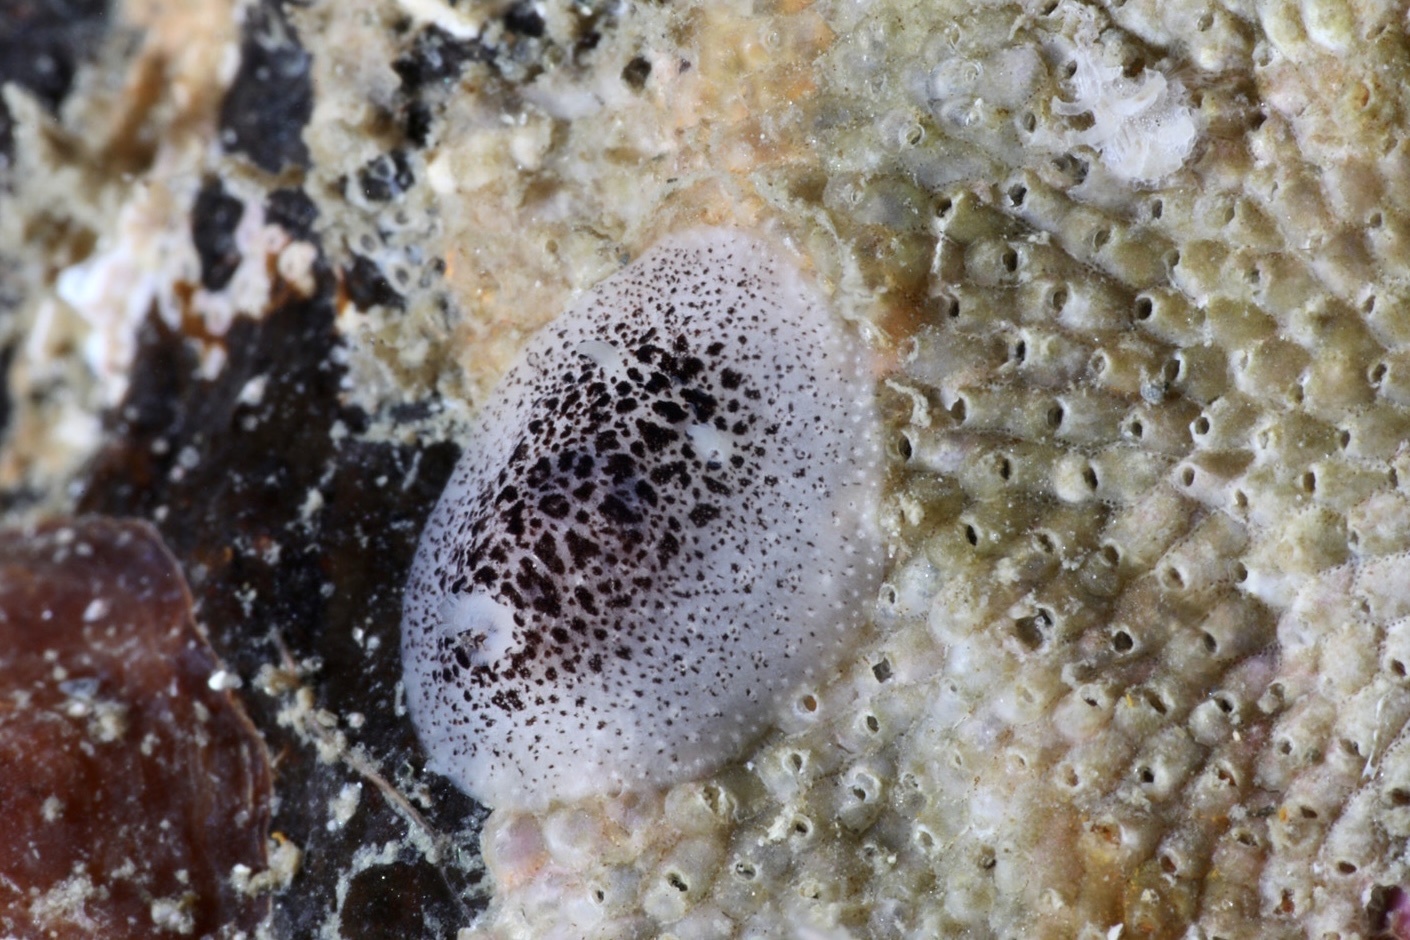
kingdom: Animalia
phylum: Mollusca
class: Gastropoda
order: Nudibranchia
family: Onchidorididae
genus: Atalodoris
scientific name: Atalodoris pusilla
